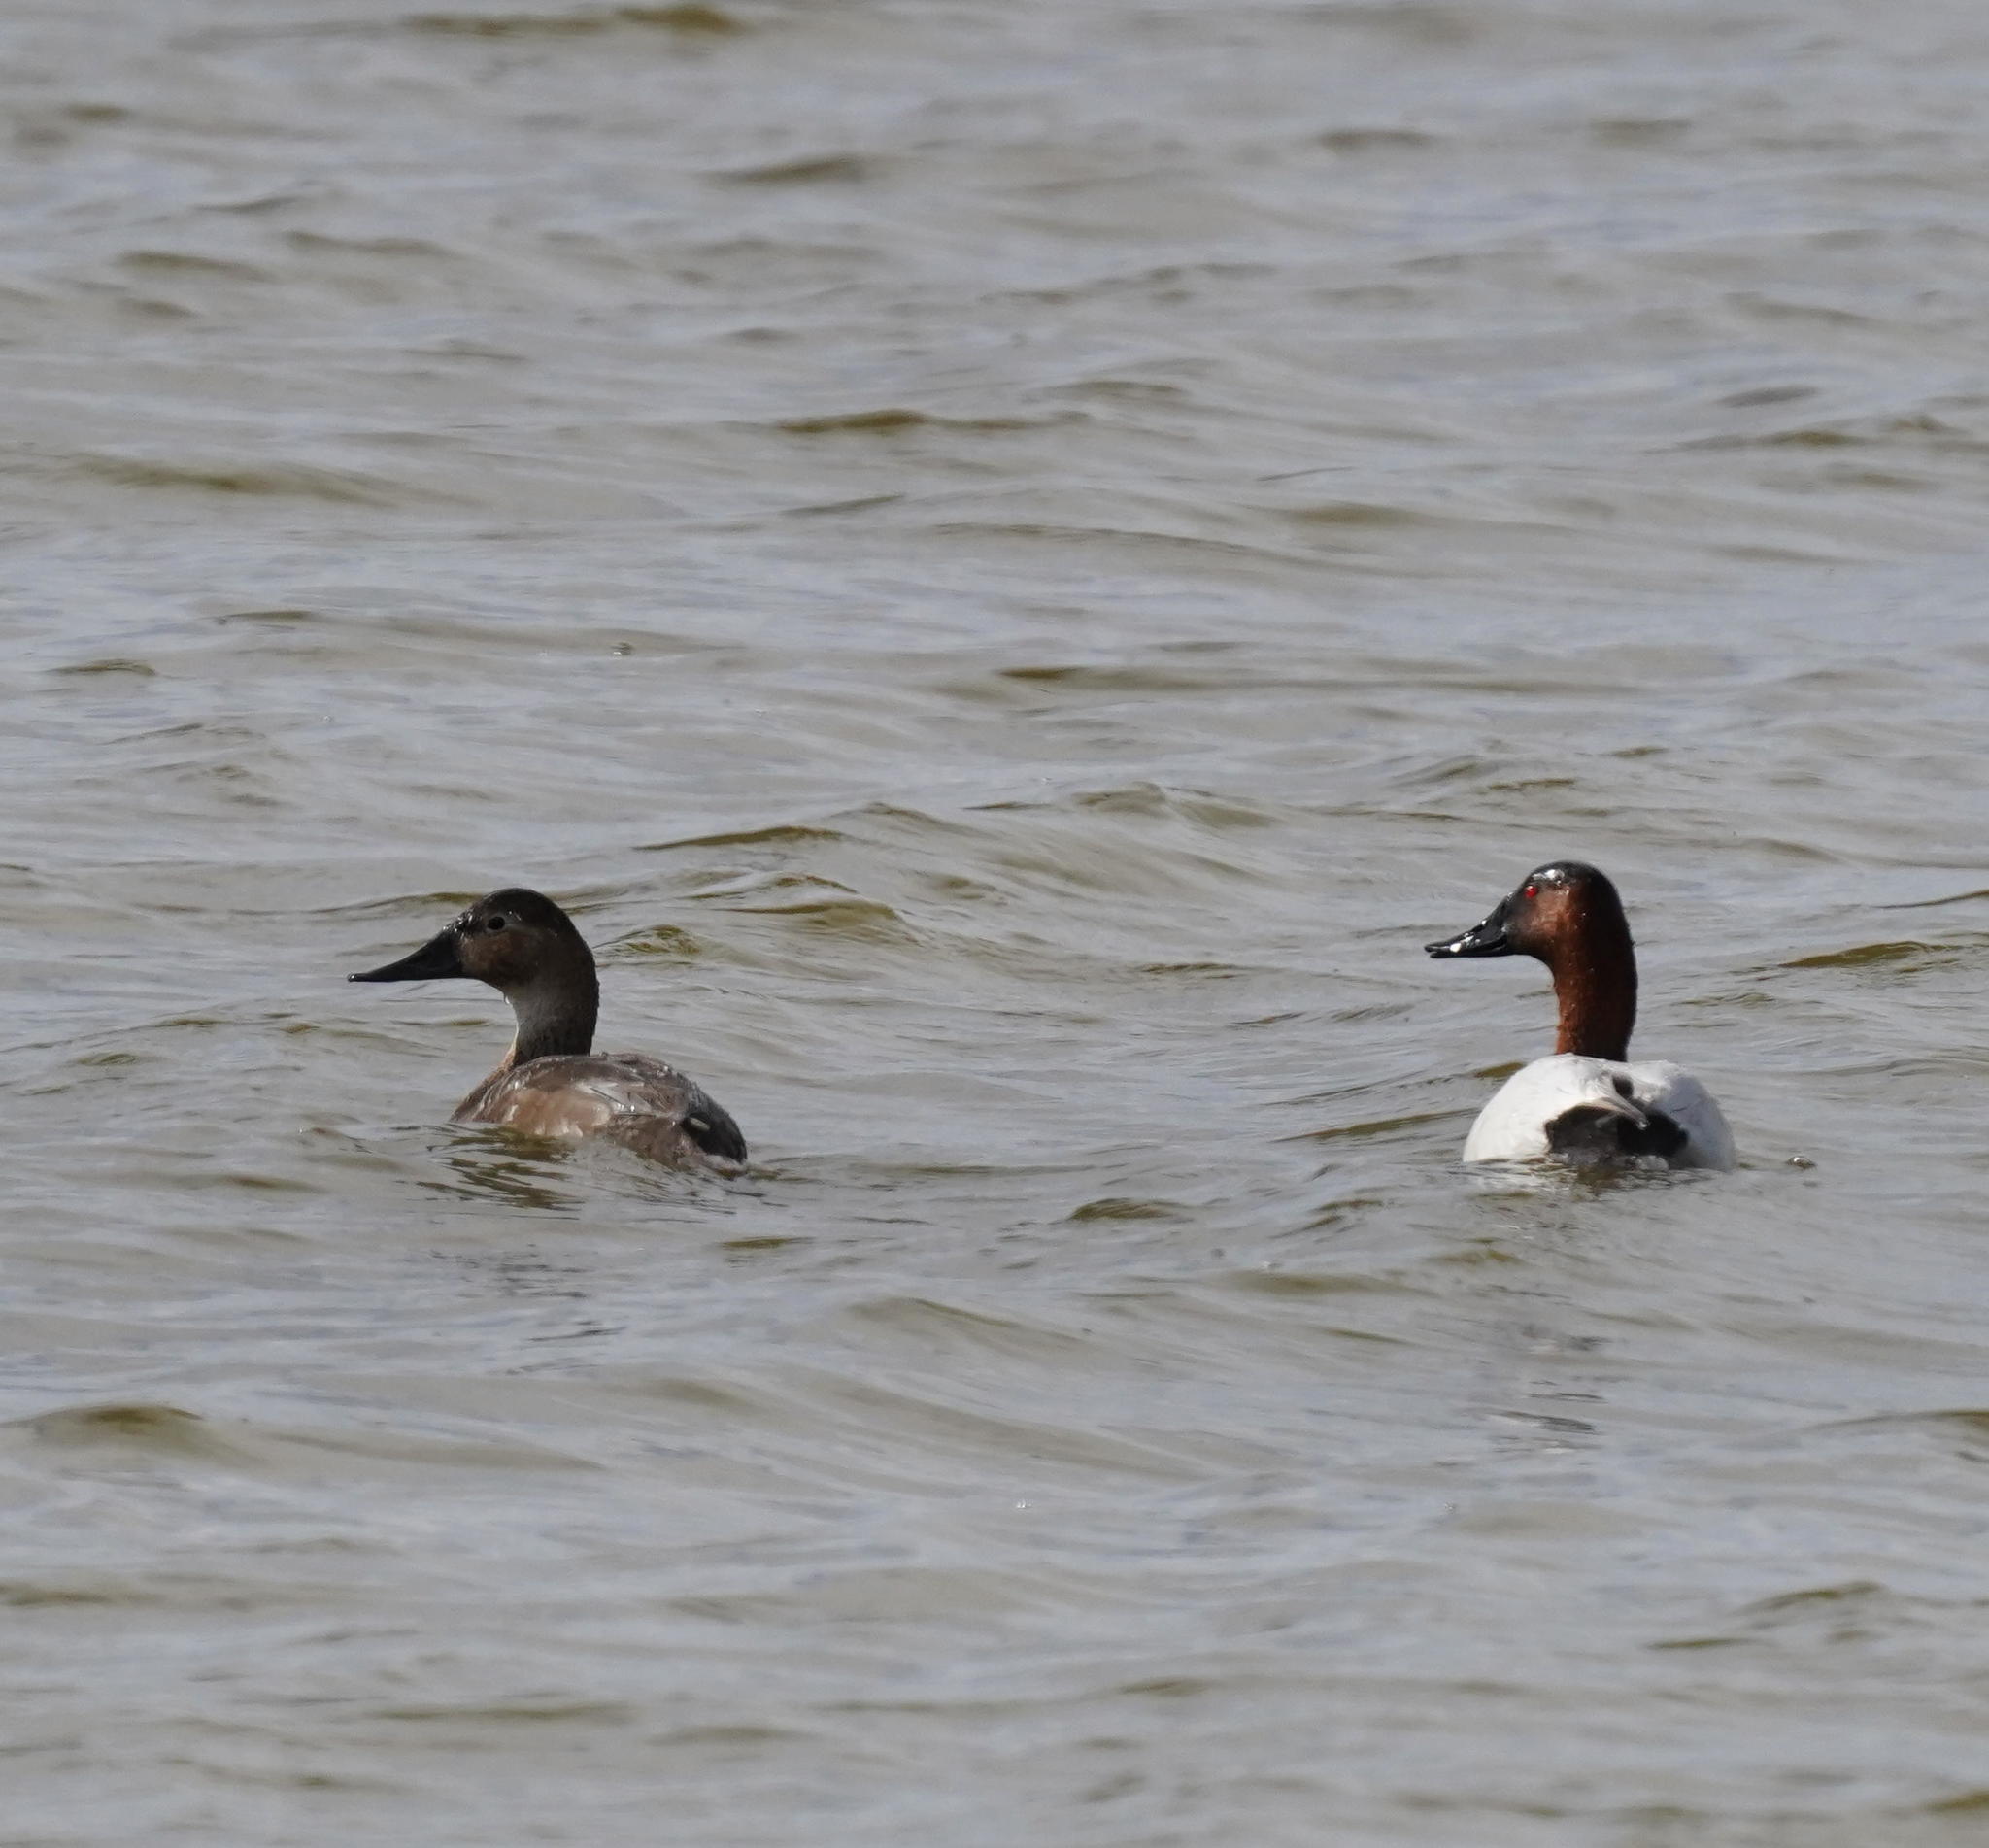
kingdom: Animalia
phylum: Chordata
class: Aves
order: Anseriformes
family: Anatidae
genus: Aythya
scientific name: Aythya valisineria
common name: Canvasback
